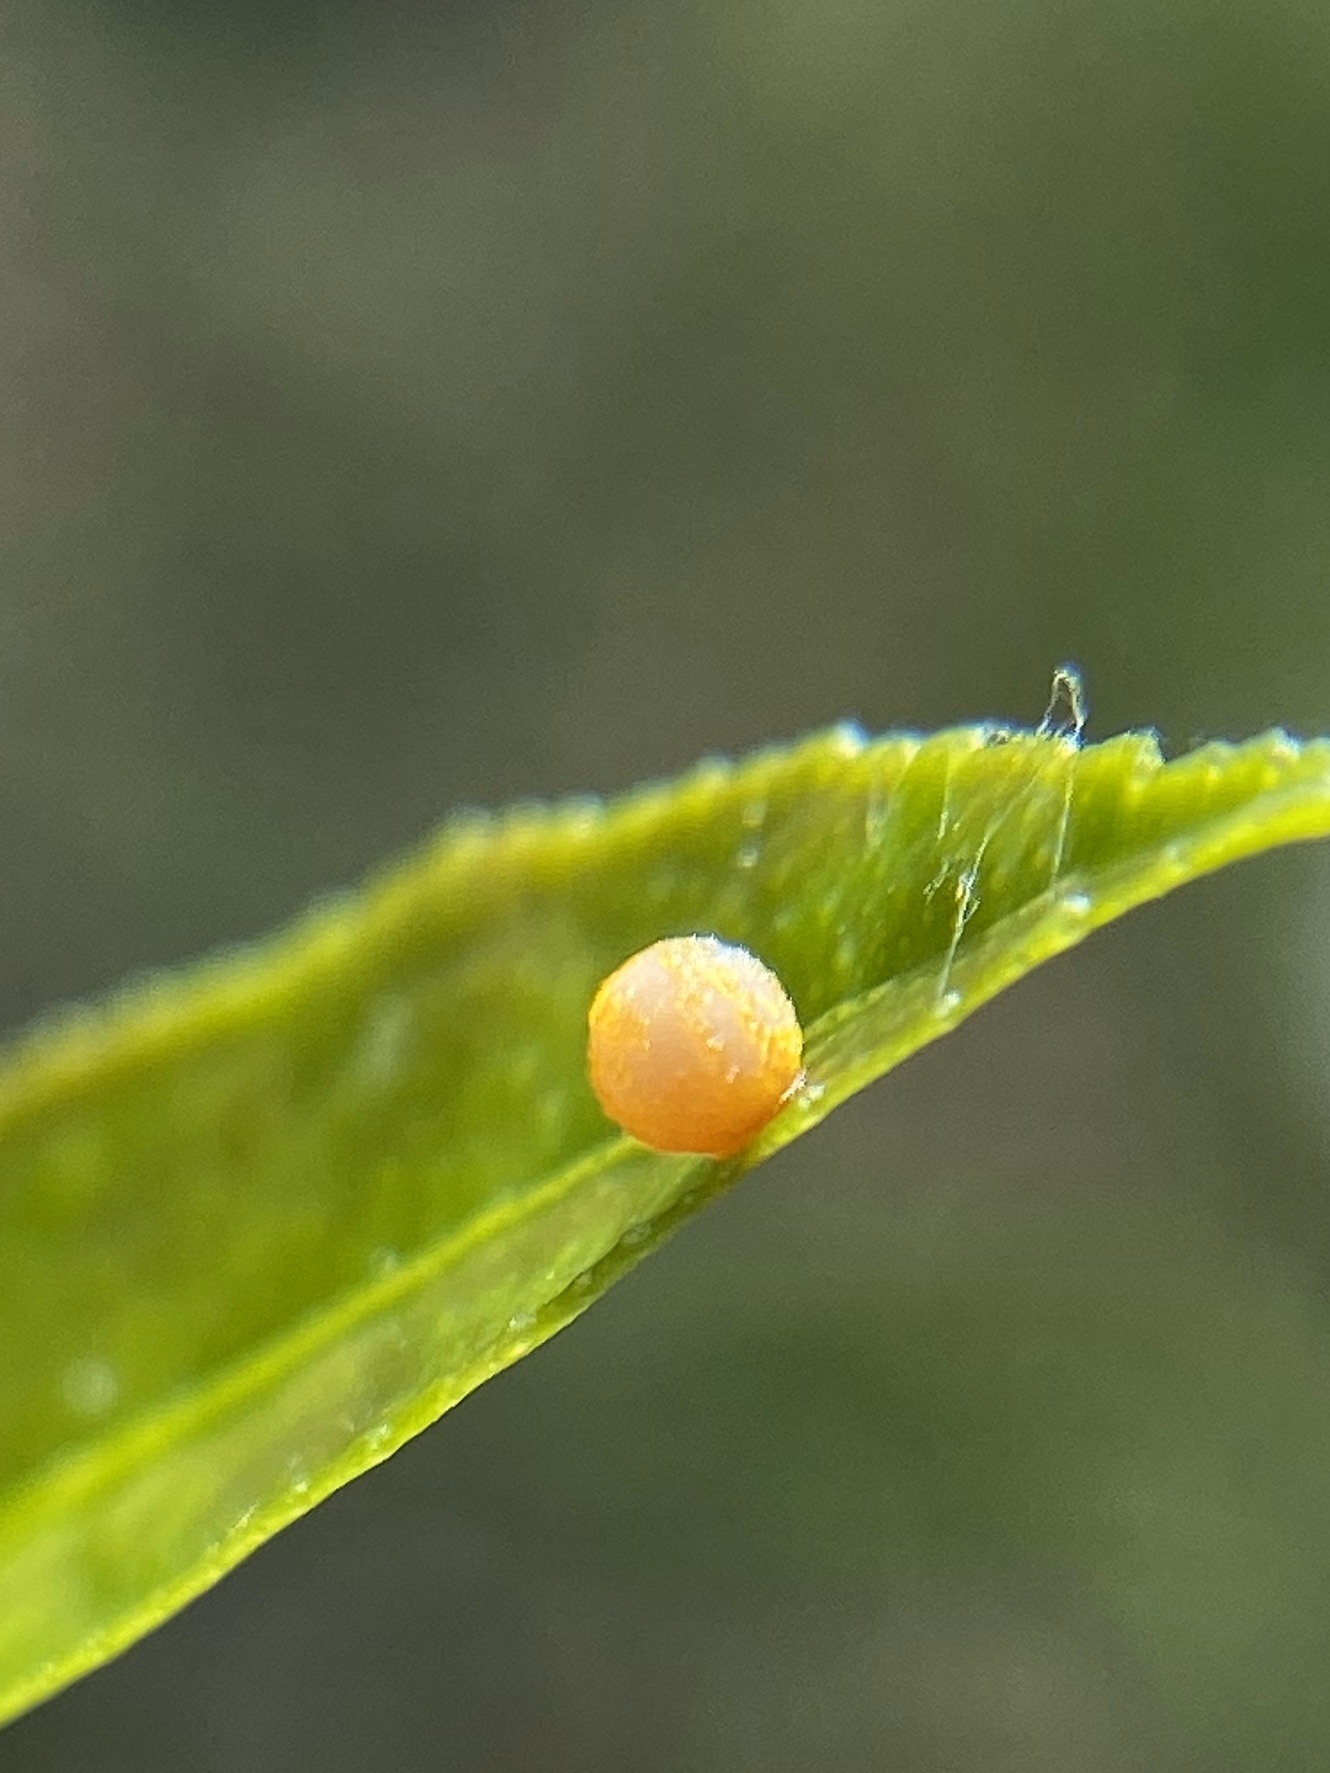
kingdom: Animalia
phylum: Arthropoda
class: Insecta
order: Lepidoptera
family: Papilionidae
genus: Papilio
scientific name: Papilio cresphontes
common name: Giant swallowtail
